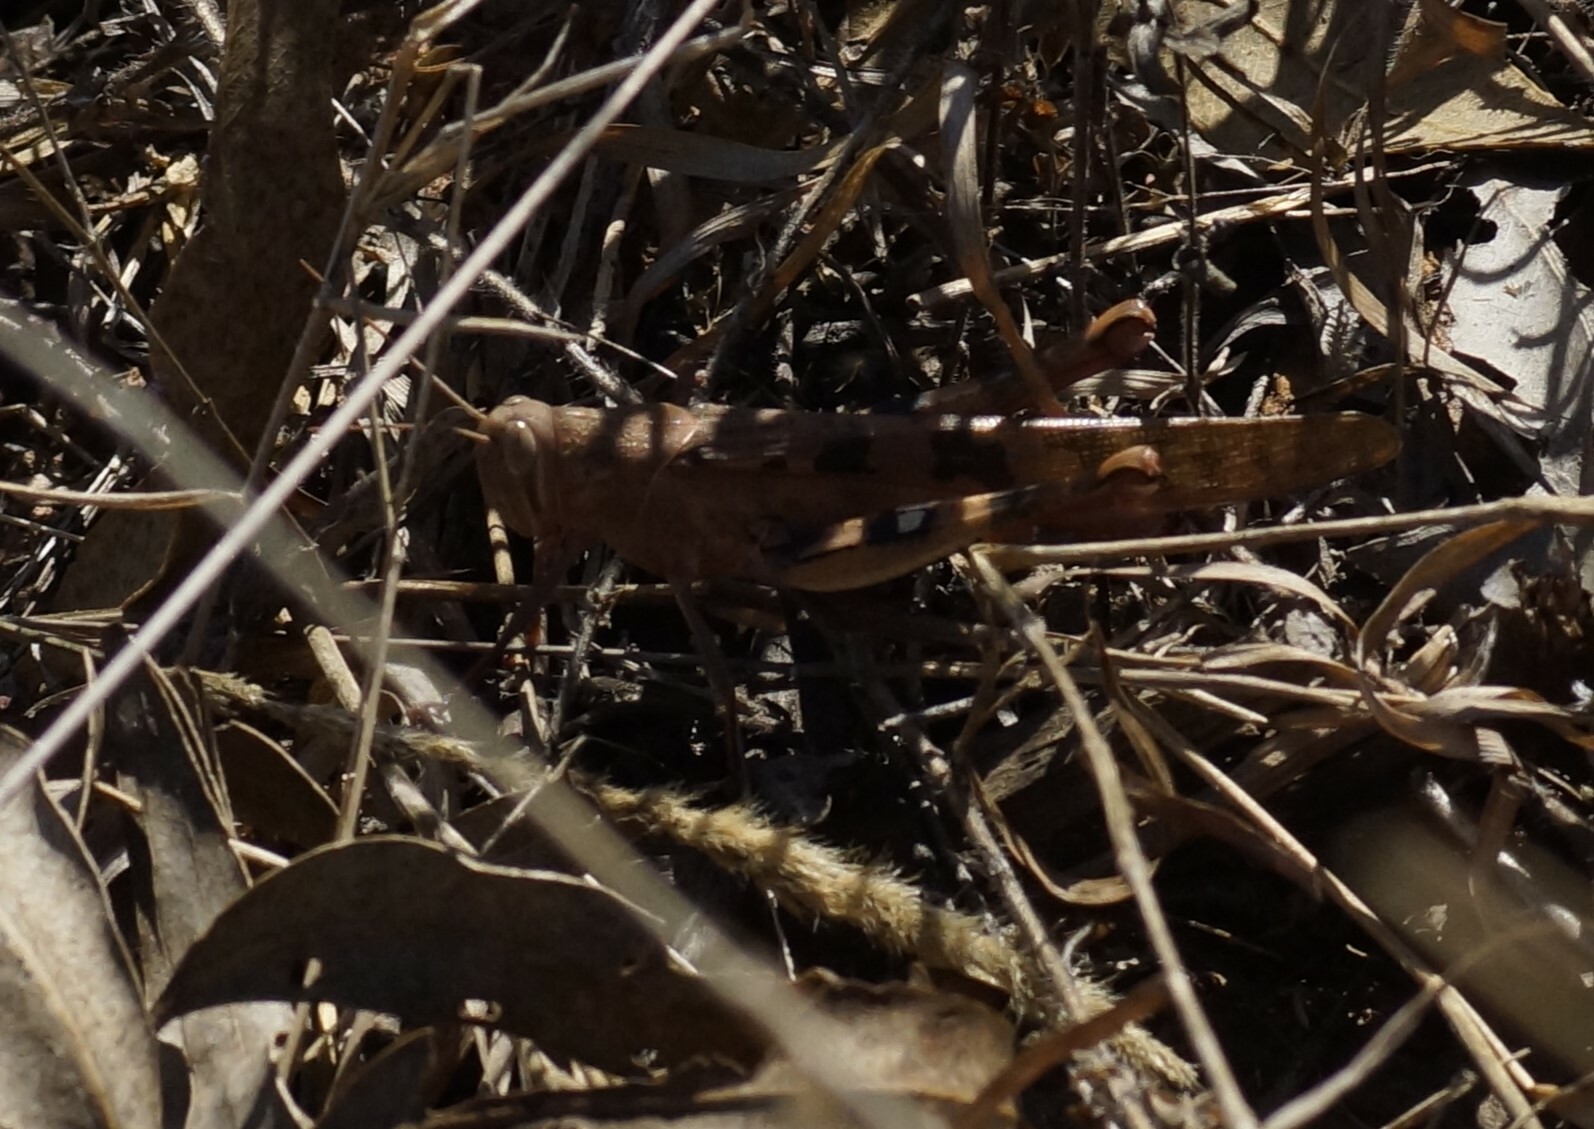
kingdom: Animalia
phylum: Arthropoda
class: Insecta
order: Orthoptera
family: Acrididae
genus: Austracris
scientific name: Austracris basalis
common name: Spotted spur-throated locust
